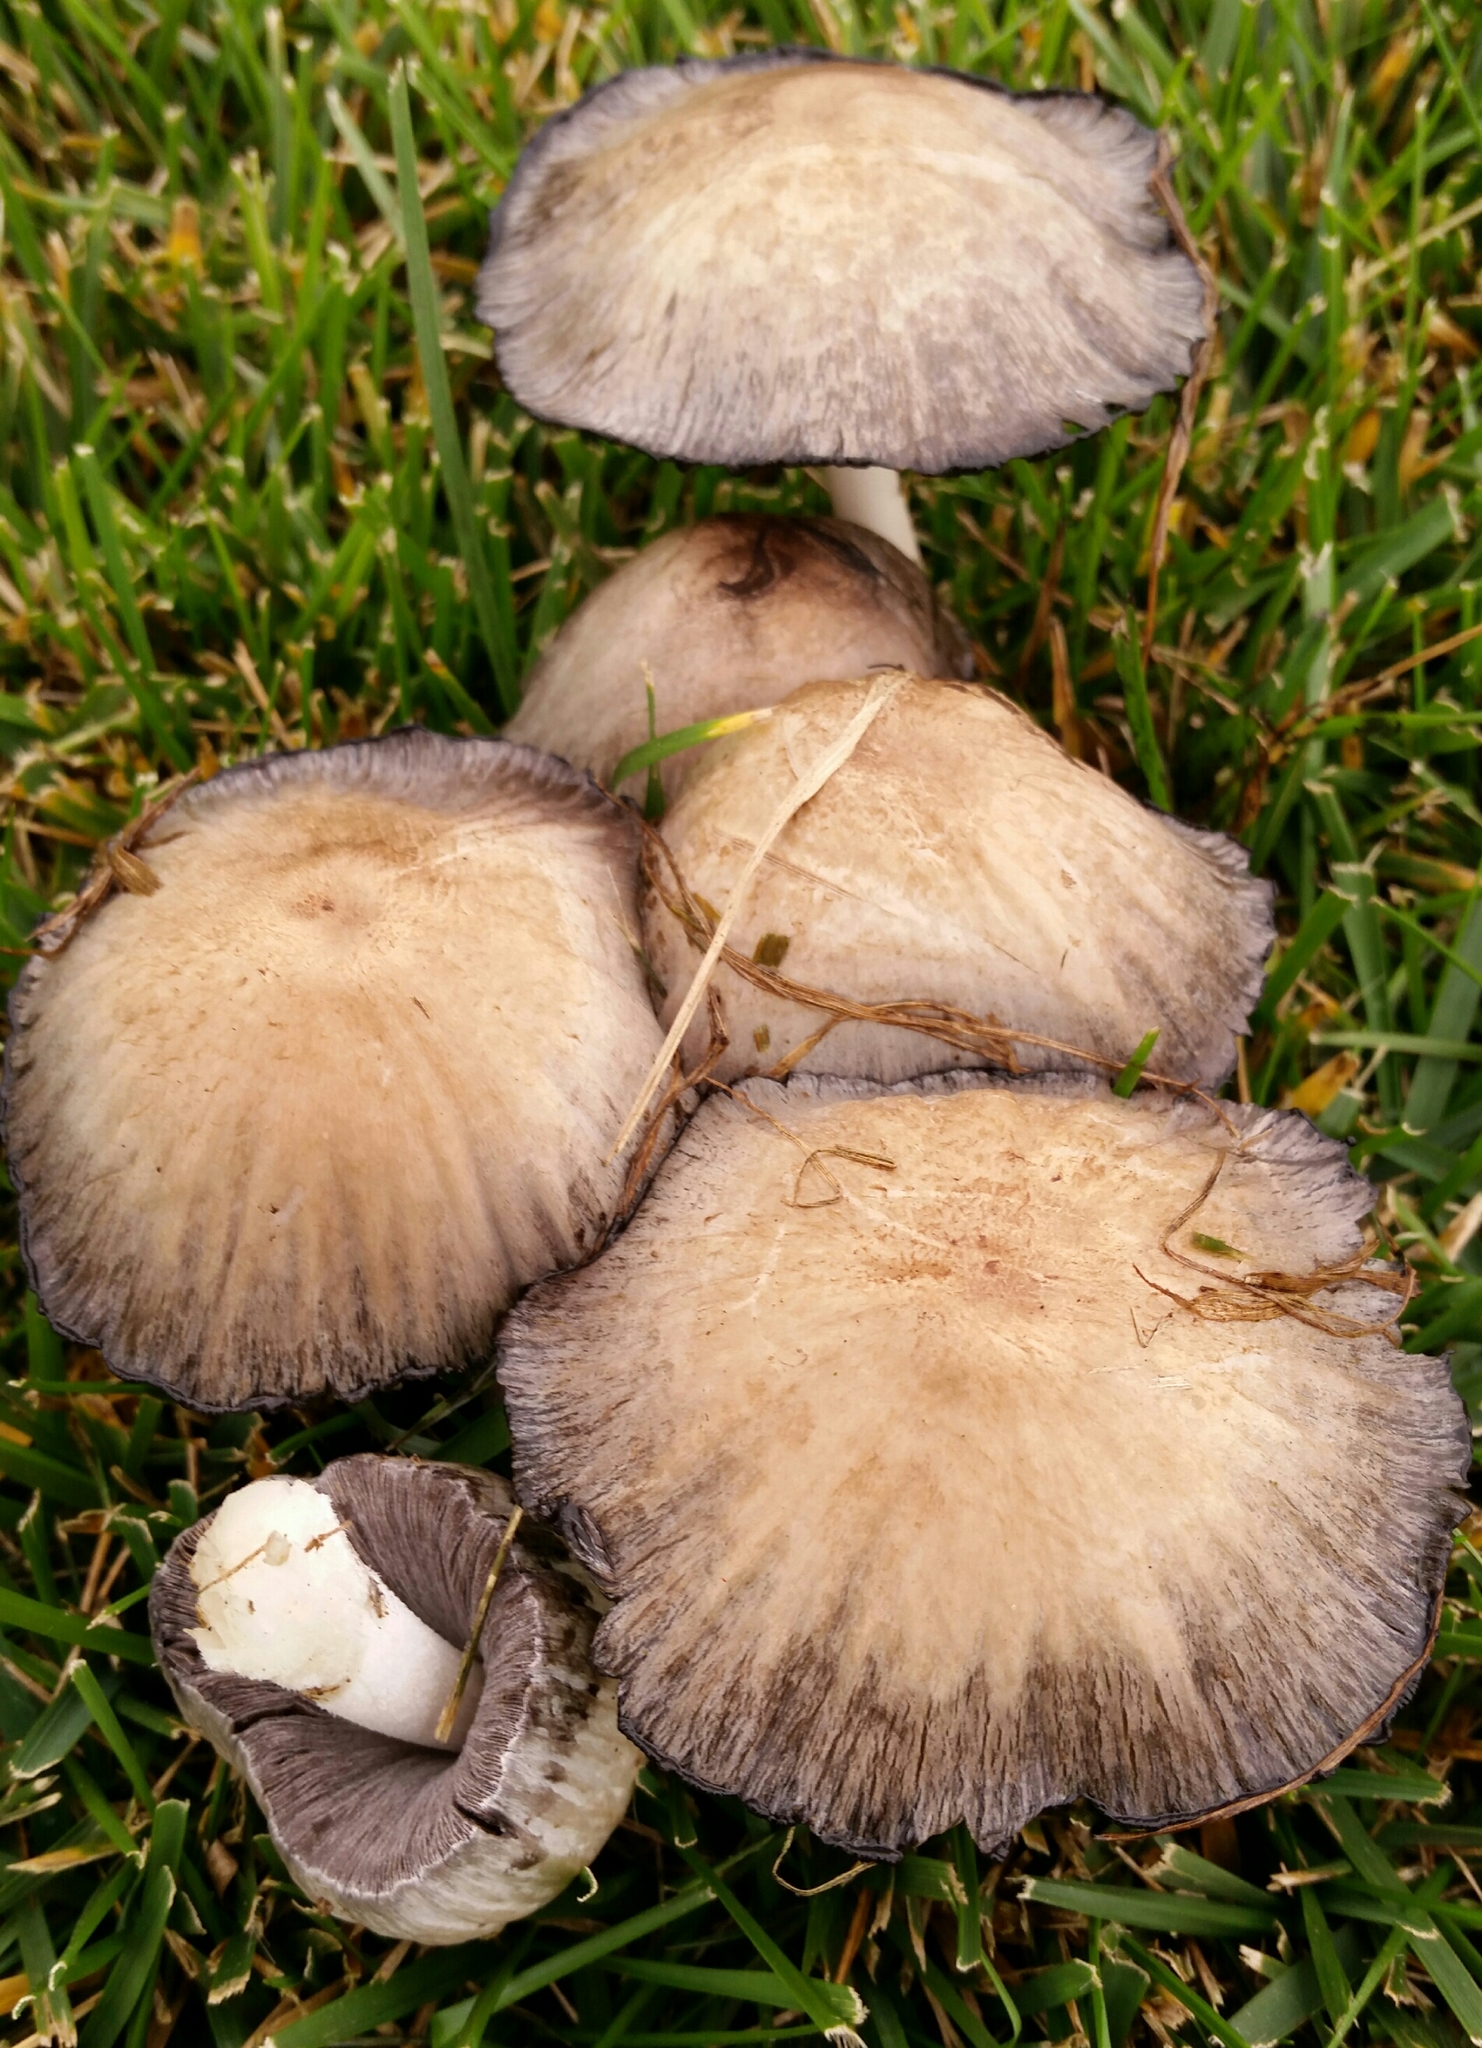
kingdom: Fungi
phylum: Basidiomycota
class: Agaricomycetes
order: Agaricales
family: Psathyrellaceae
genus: Coprinopsis
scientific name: Coprinopsis atramentaria
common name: Common ink-cap
